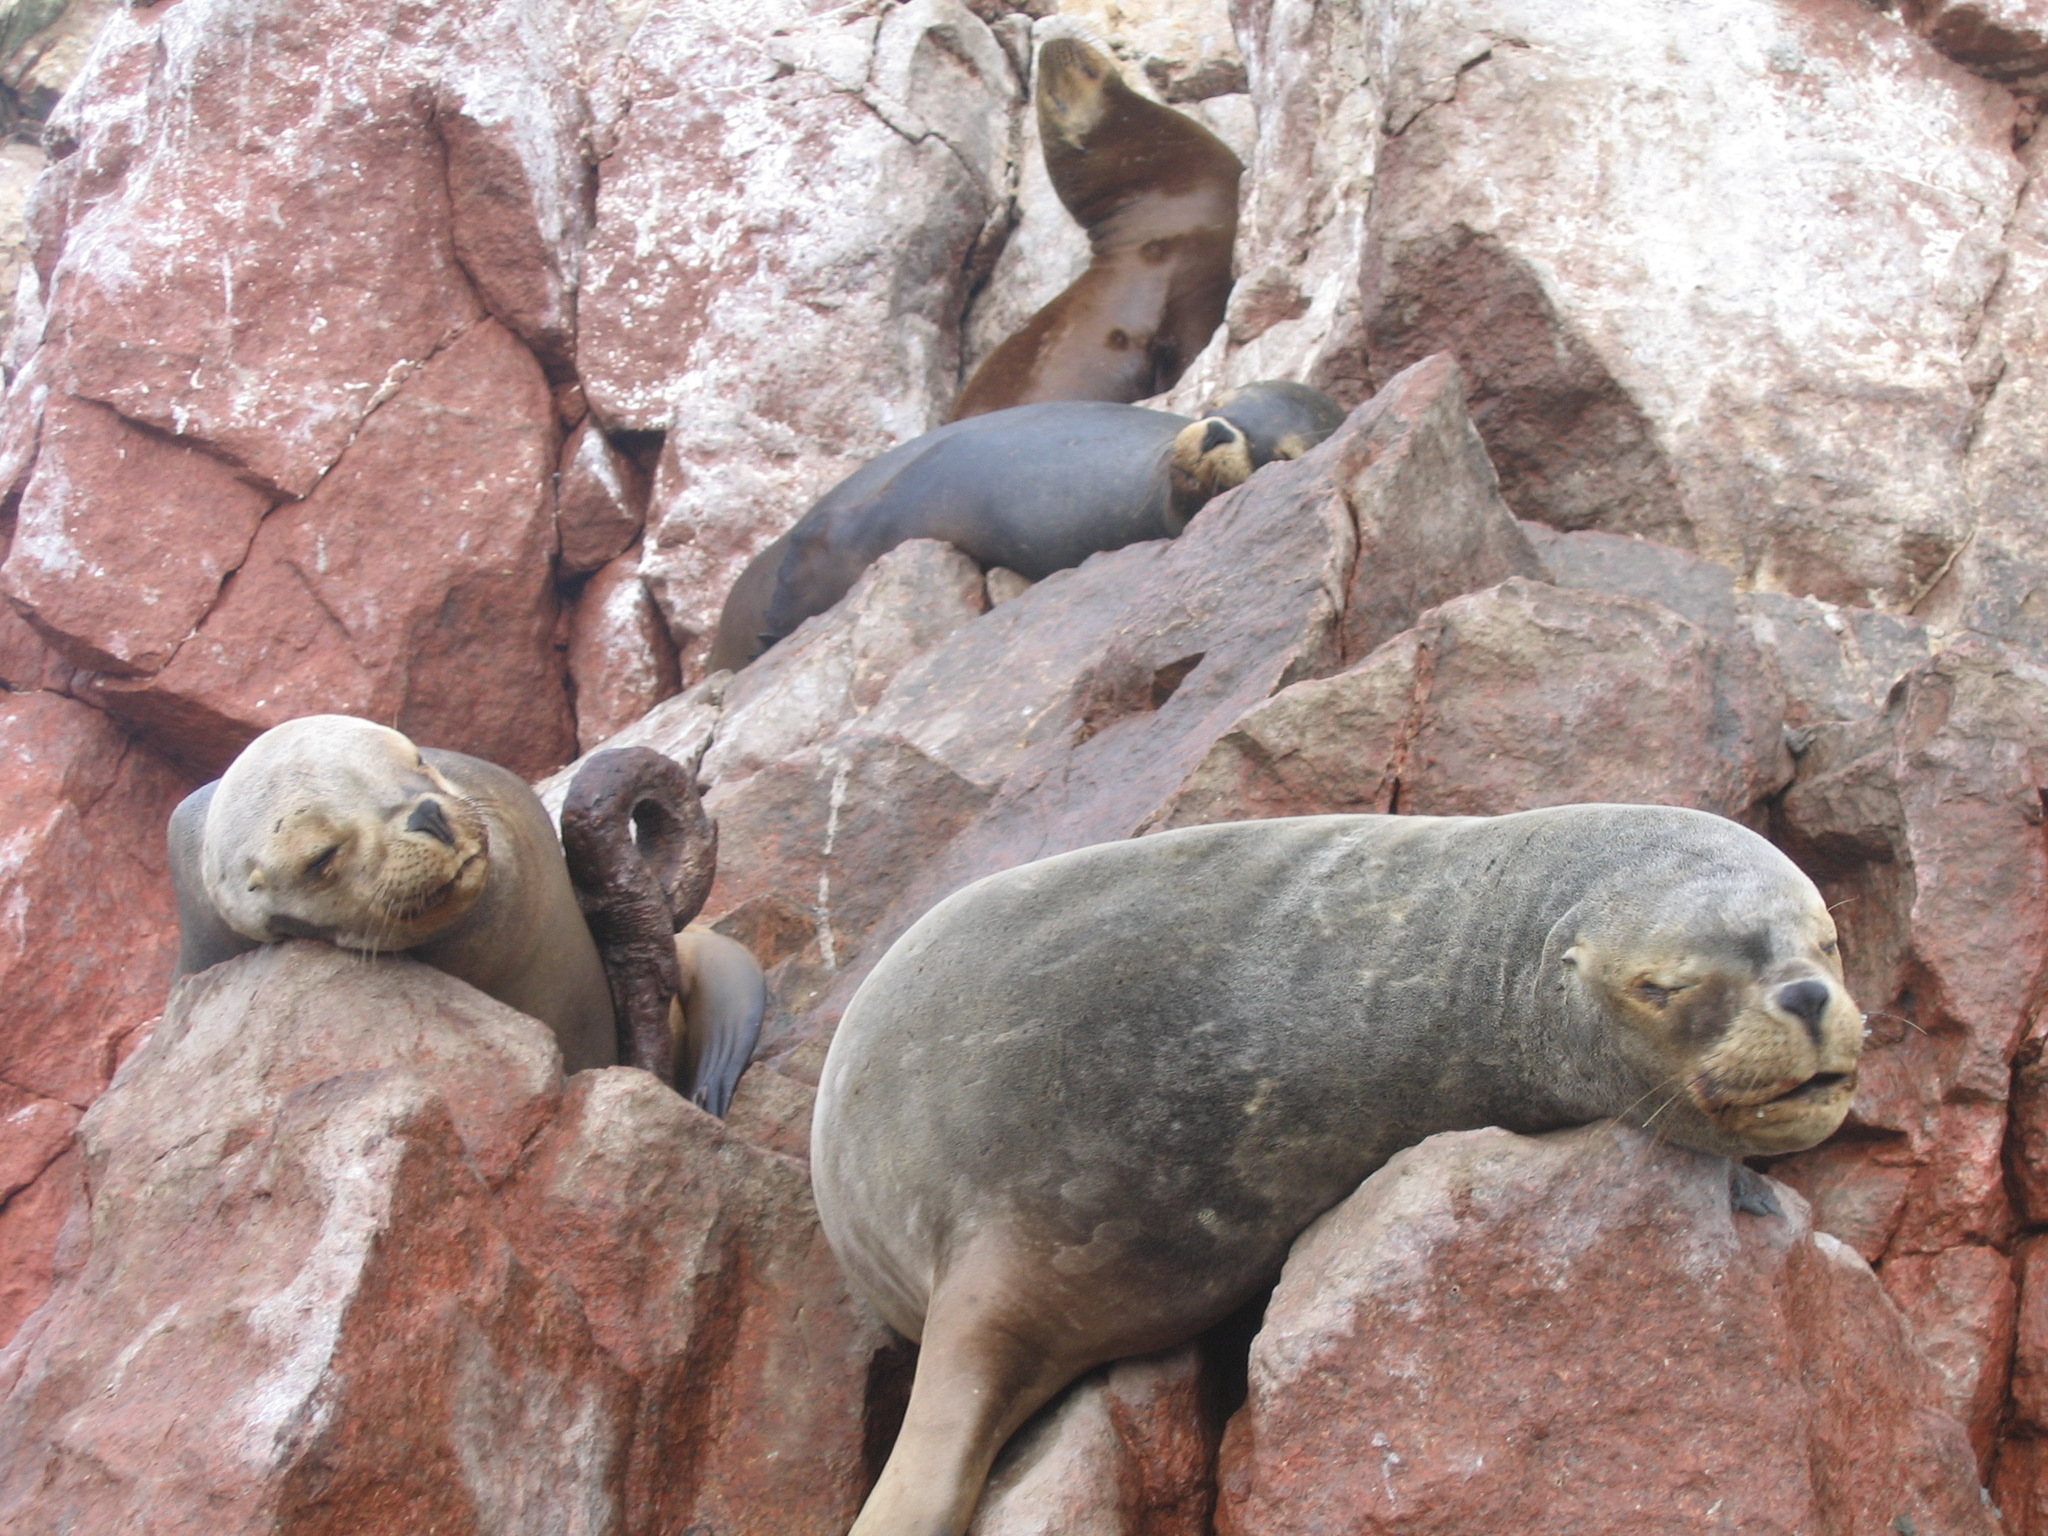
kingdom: Animalia
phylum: Chordata
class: Mammalia
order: Carnivora
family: Otariidae
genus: Otaria
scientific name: Otaria byronia
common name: South american sea lion
